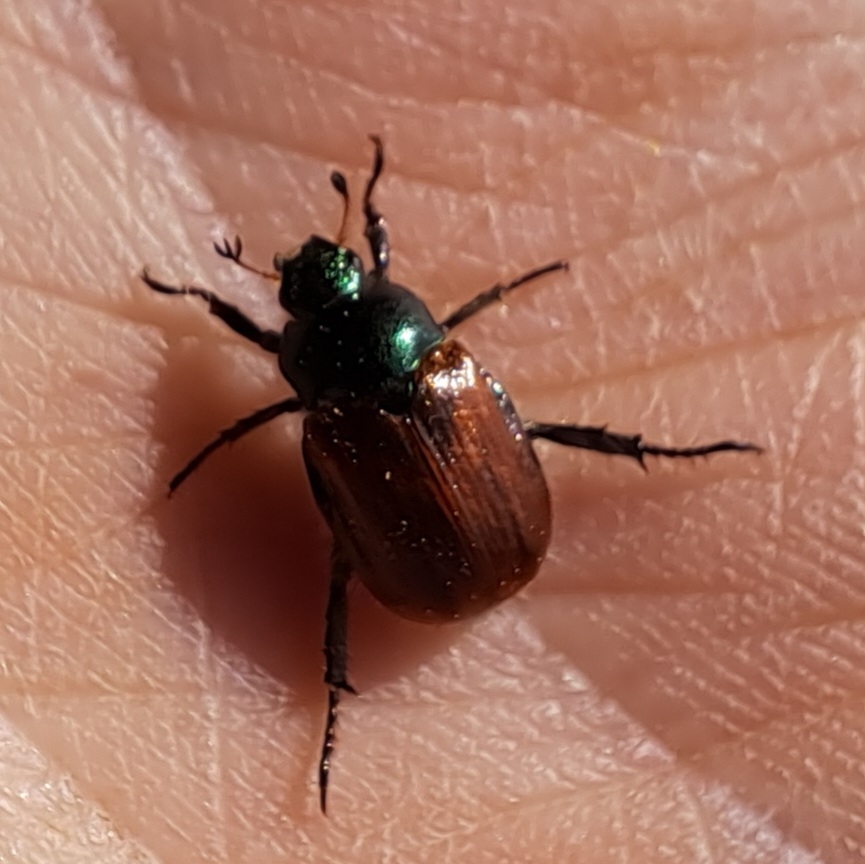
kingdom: Animalia
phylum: Arthropoda
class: Insecta
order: Coleoptera
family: Scarabaeidae
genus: Phyllopertha
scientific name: Phyllopertha horticola
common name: Garden chafer
